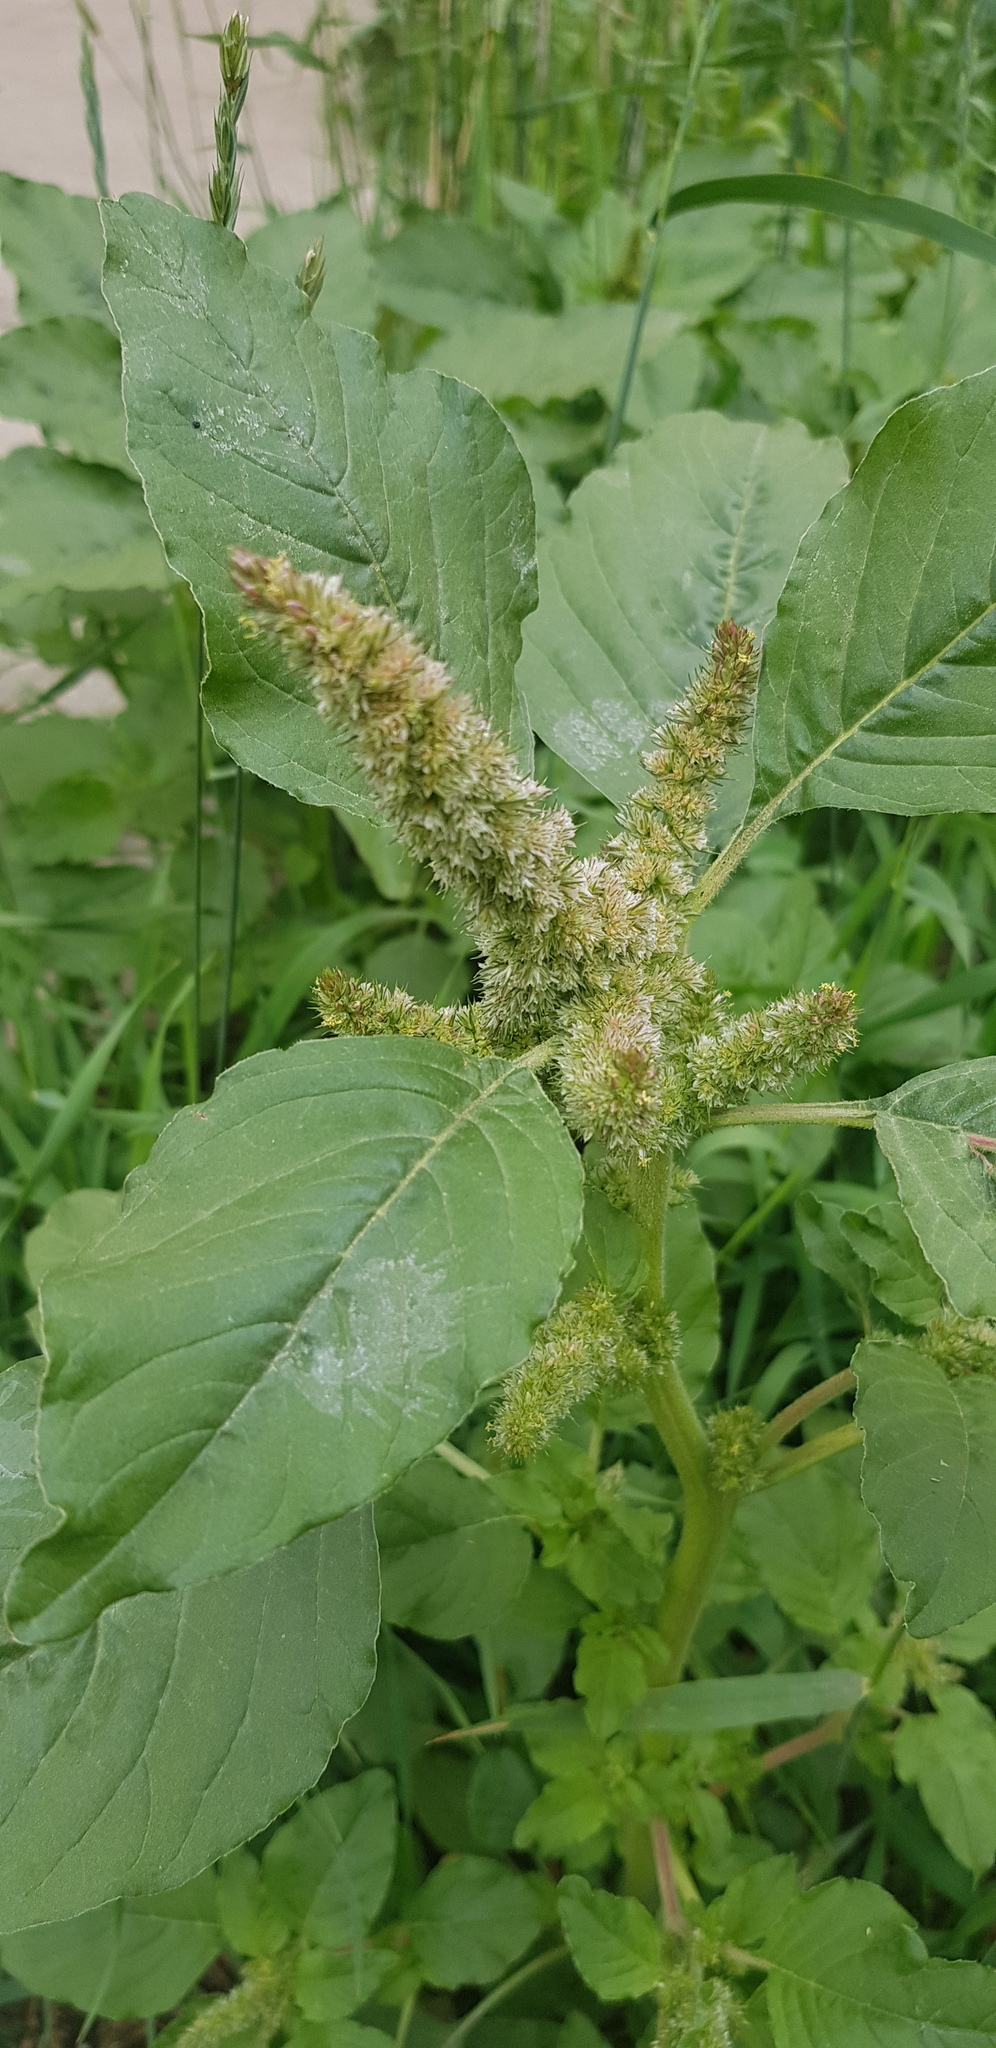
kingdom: Plantae
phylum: Tracheophyta
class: Magnoliopsida
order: Caryophyllales
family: Amaranthaceae
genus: Amaranthus
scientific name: Amaranthus retroflexus
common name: Redroot amaranth
